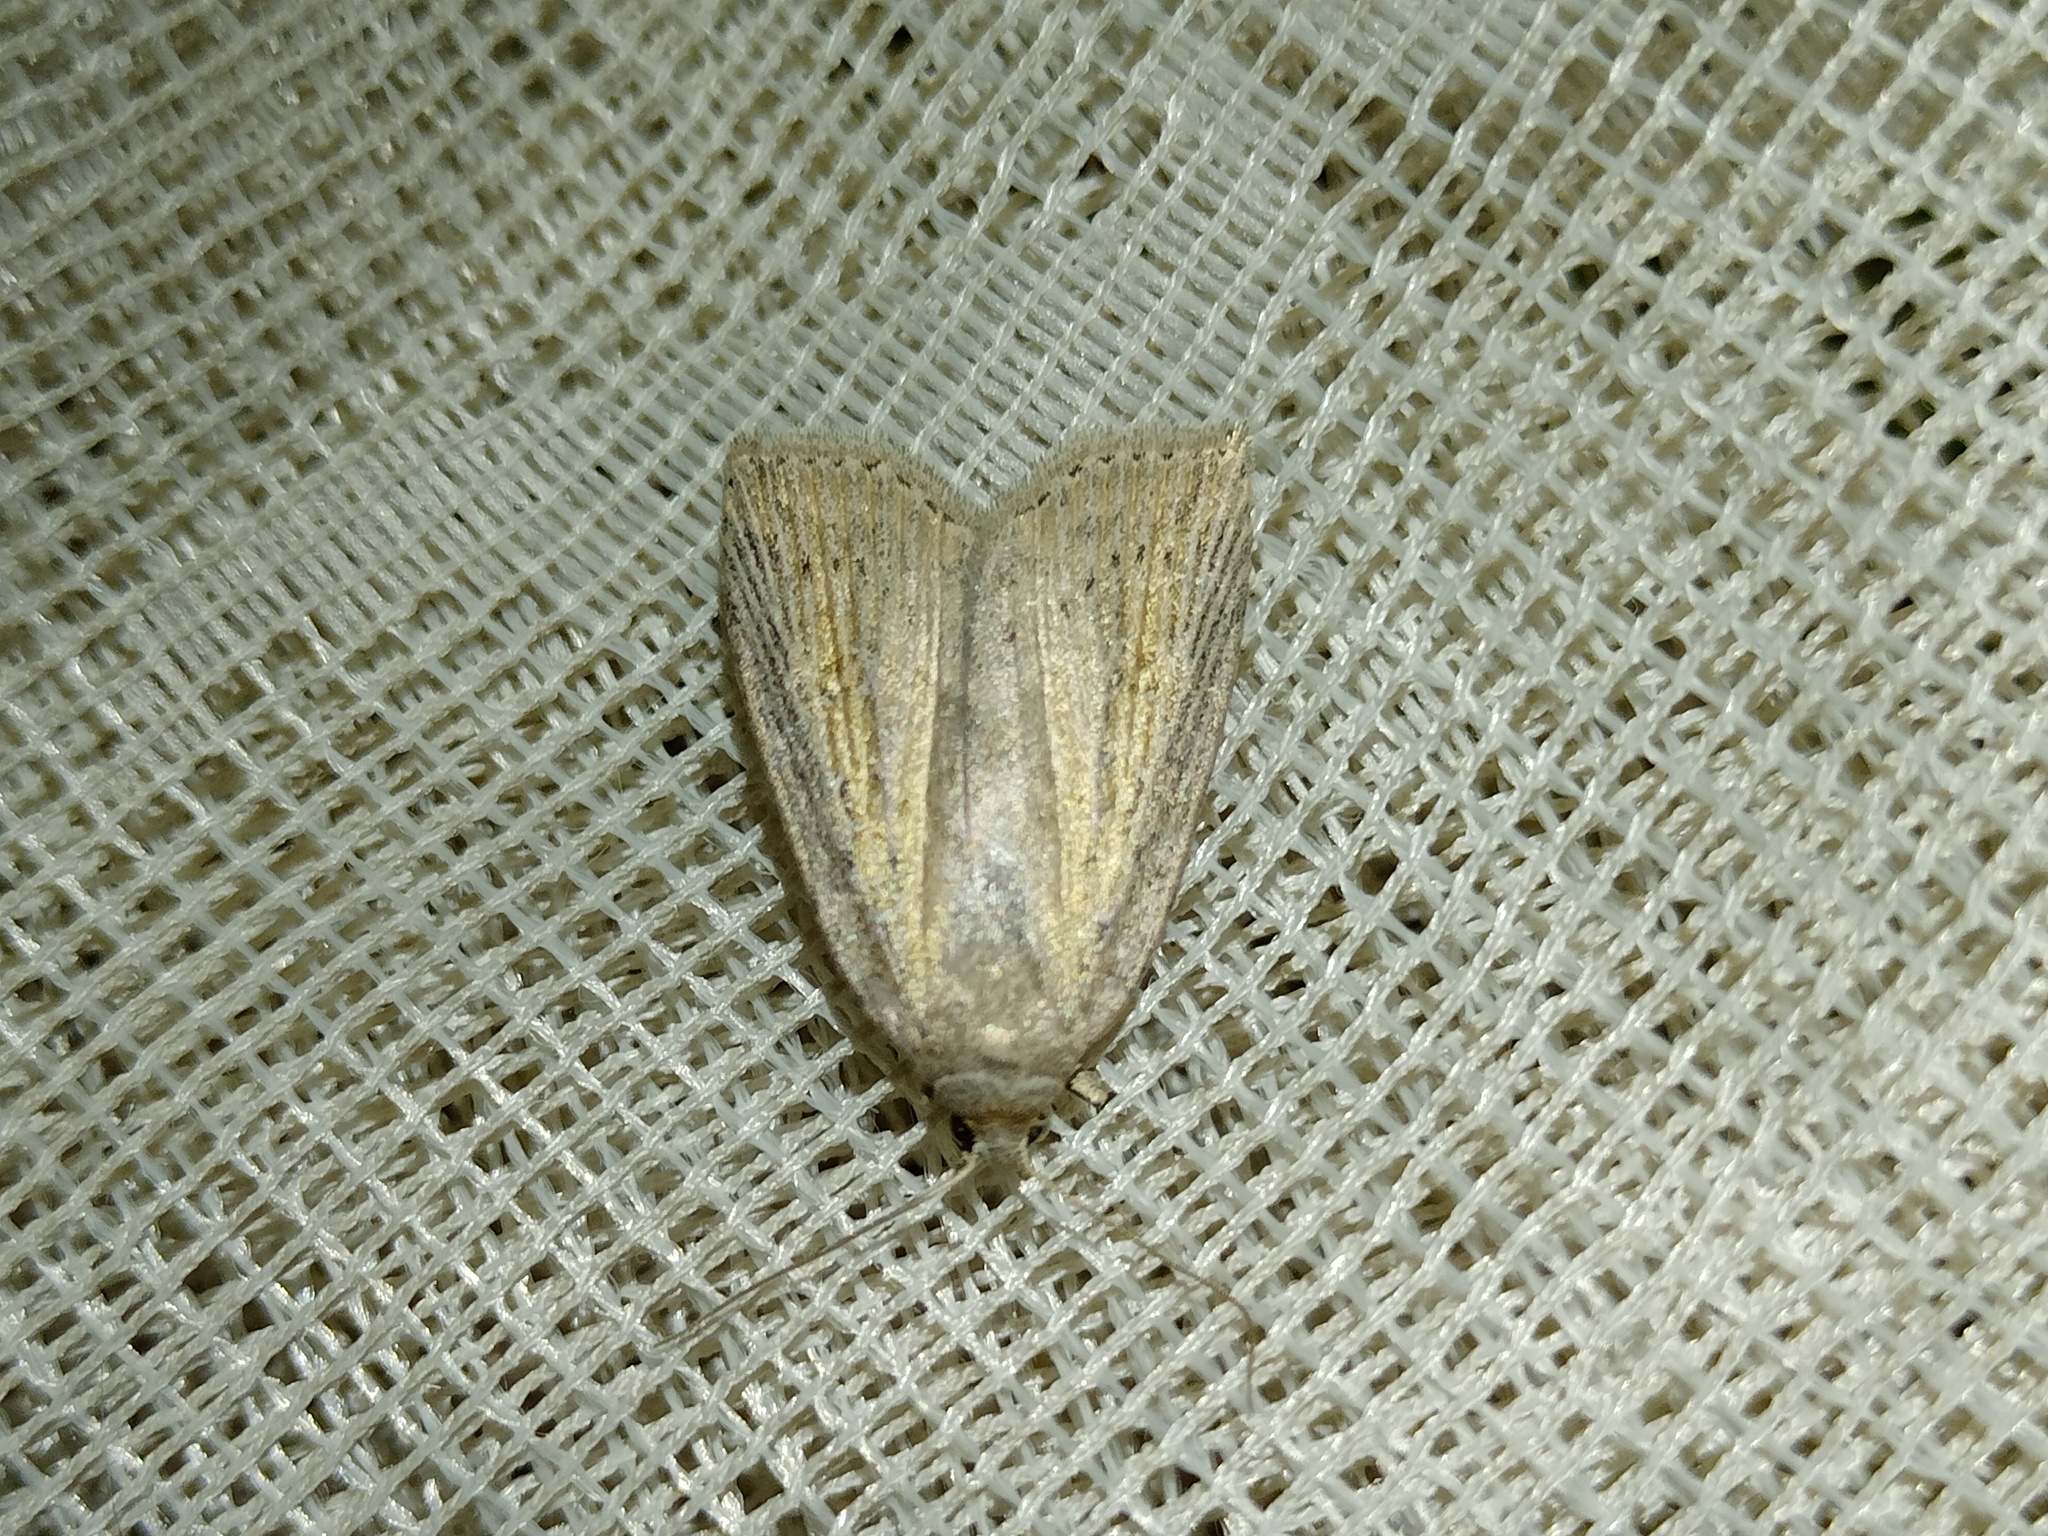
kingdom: Animalia
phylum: Arthropoda
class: Insecta
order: Lepidoptera
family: Noctuidae
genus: Chilodes
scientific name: Chilodes maritima
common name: Silky wainscot
